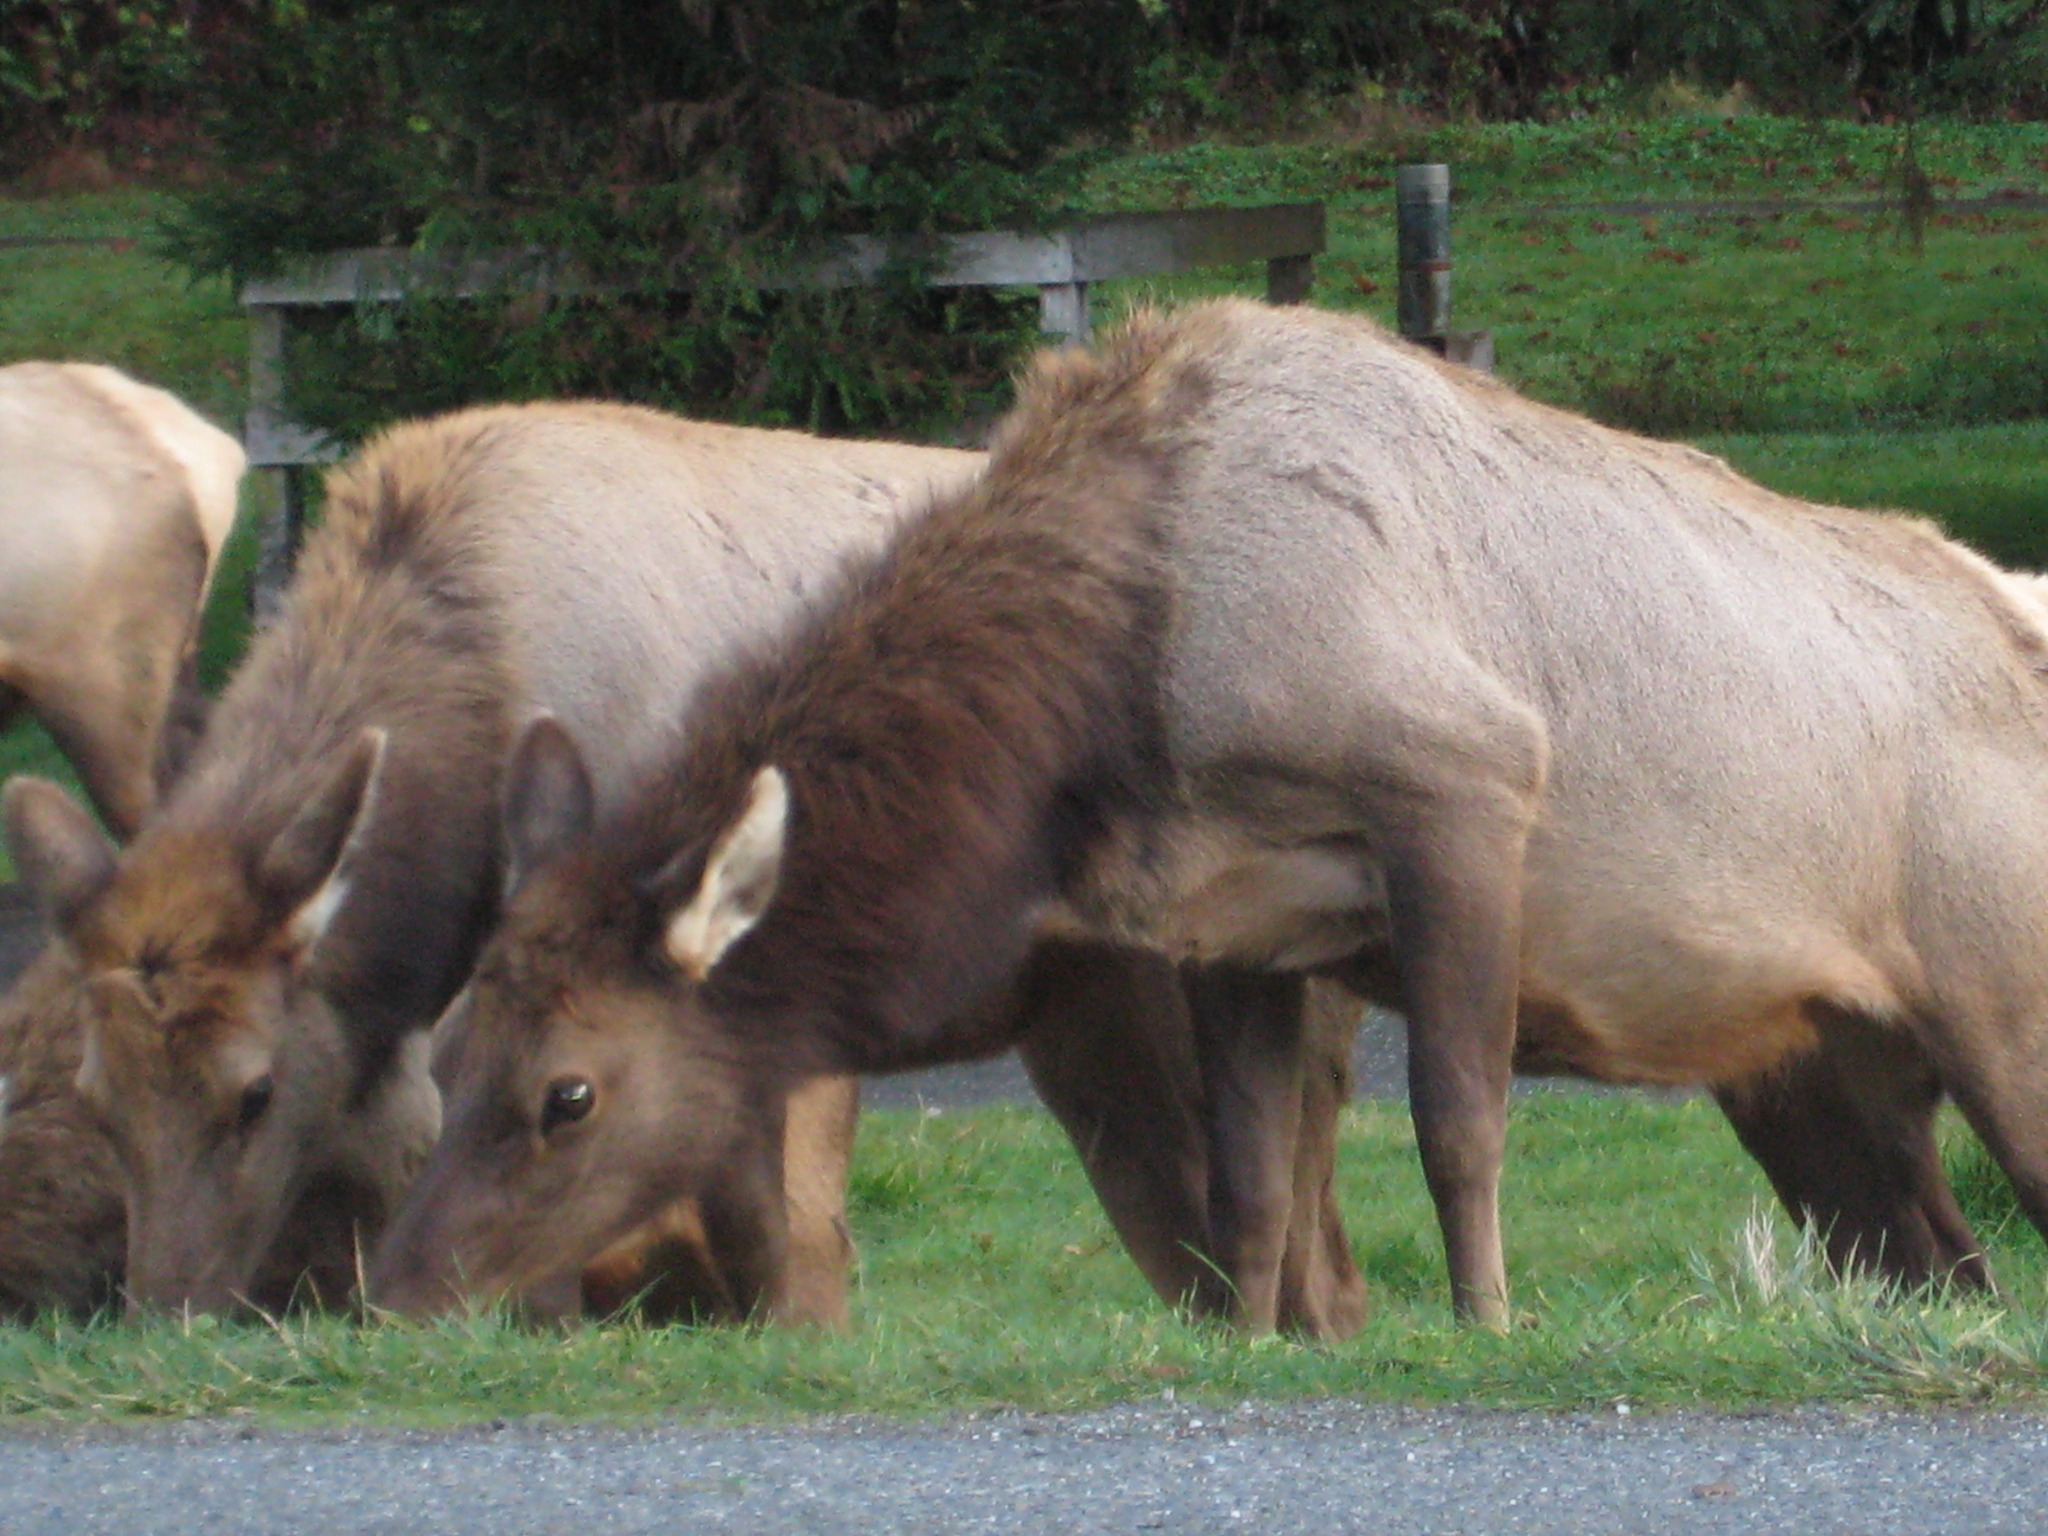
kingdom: Animalia
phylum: Chordata
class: Mammalia
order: Artiodactyla
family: Cervidae
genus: Cervus
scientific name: Cervus elaphus
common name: Red deer
